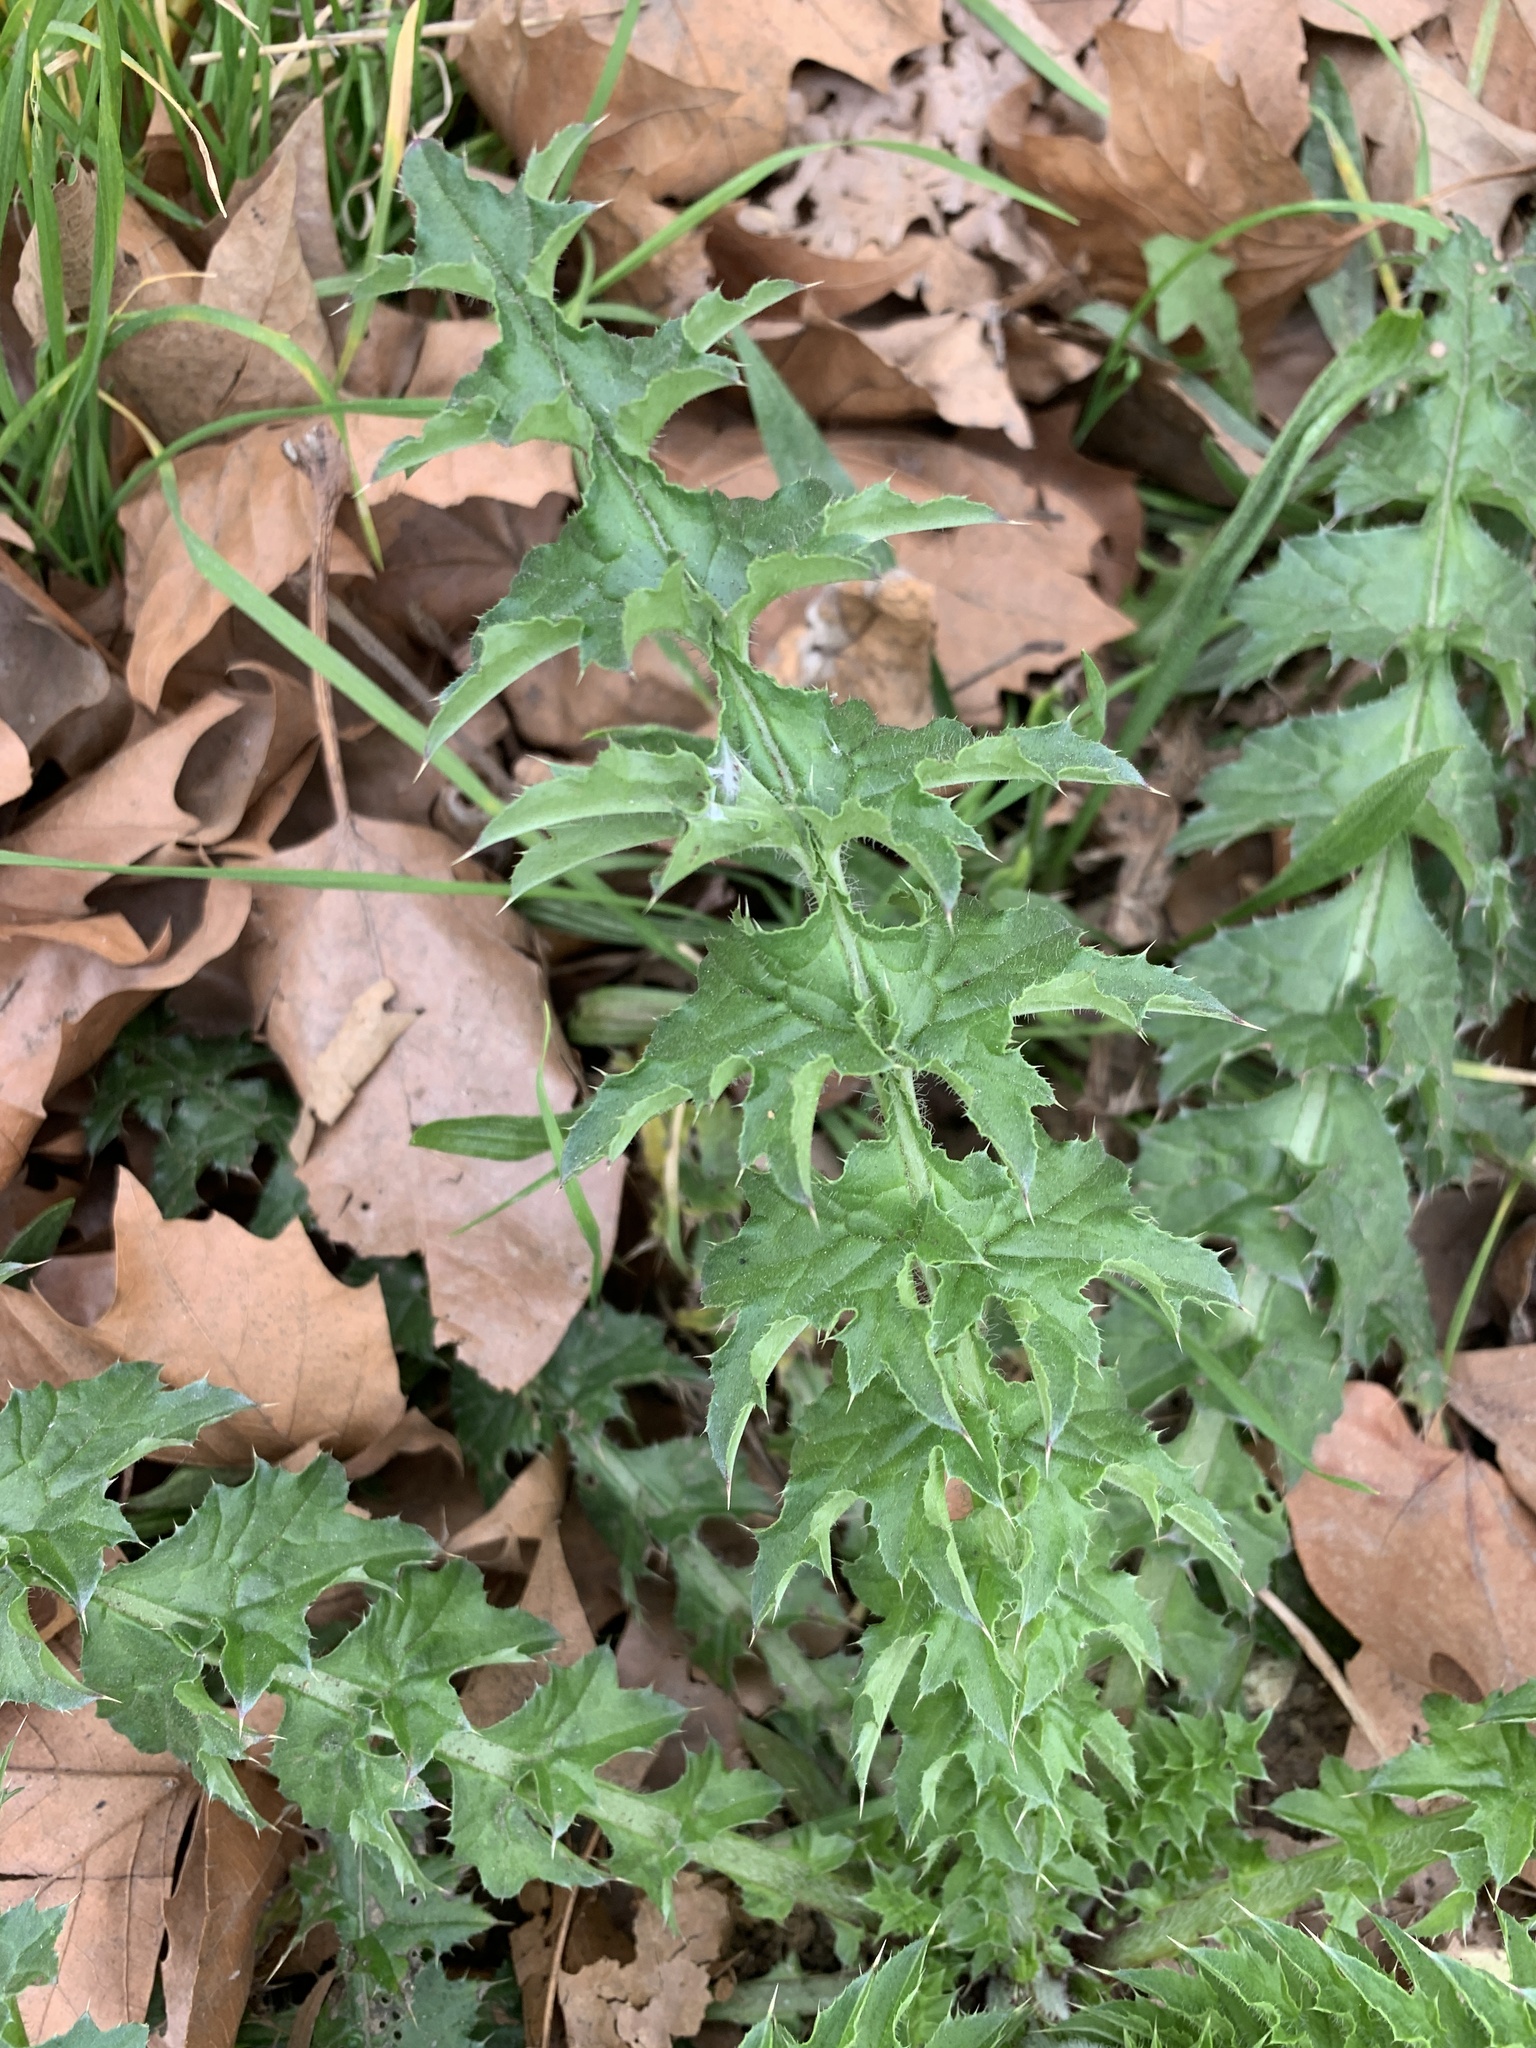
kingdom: Plantae
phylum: Tracheophyta
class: Magnoliopsida
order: Asterales
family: Asteraceae
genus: Carduus
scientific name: Carduus acanthoides
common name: Plumeless thistle
